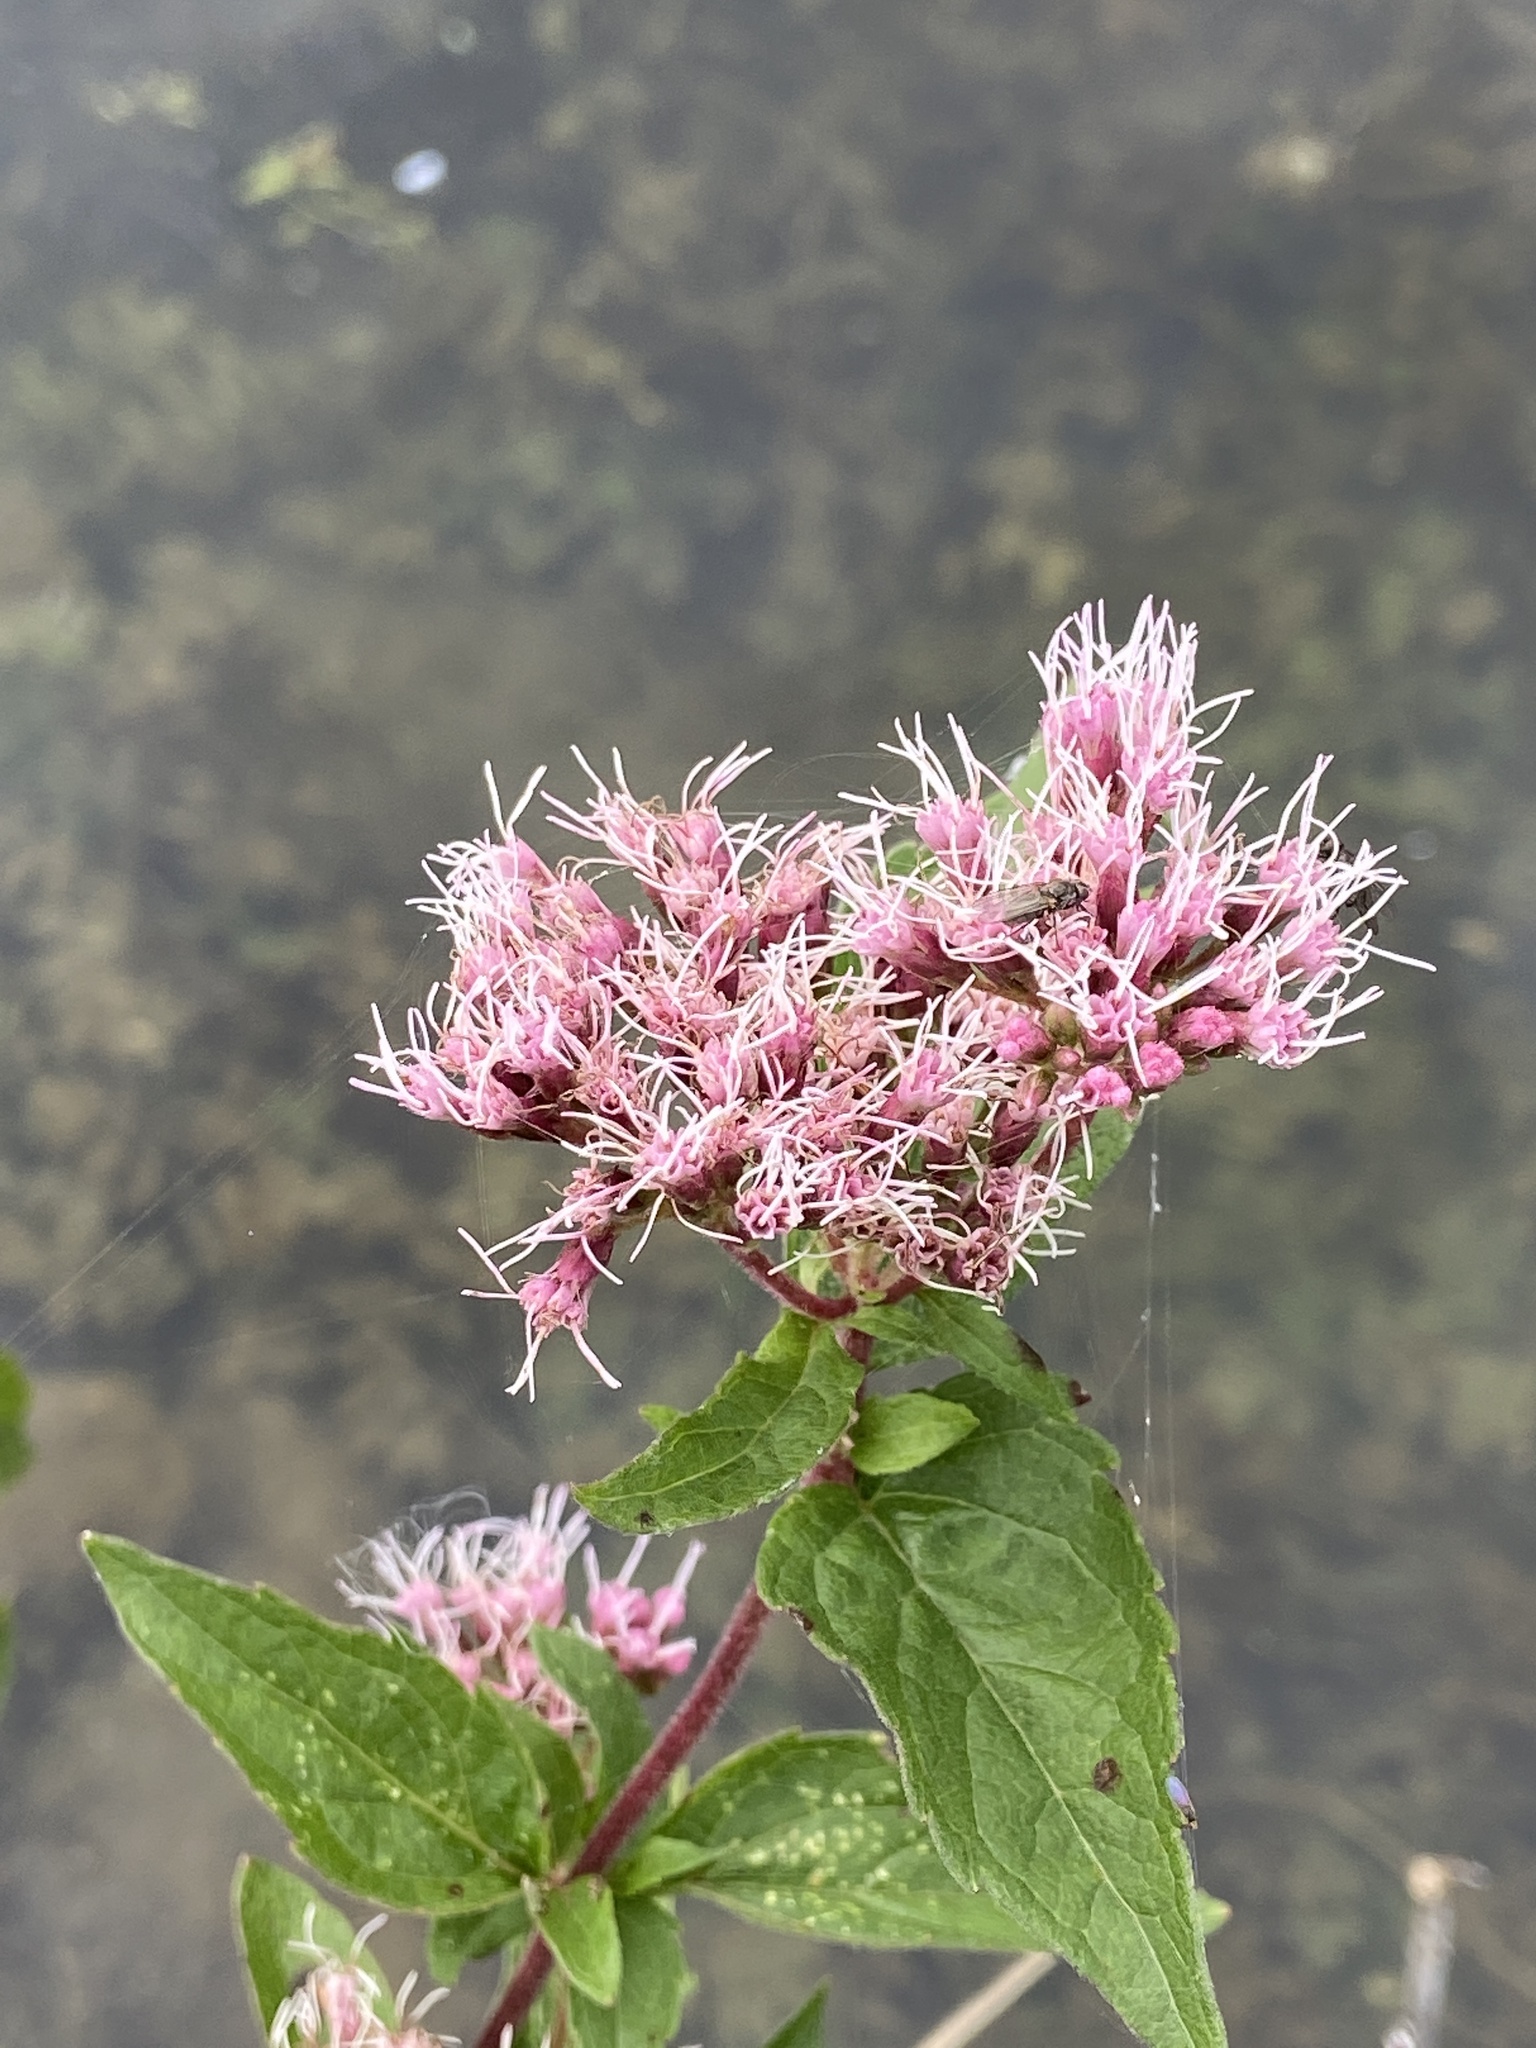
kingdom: Plantae
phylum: Tracheophyta
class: Magnoliopsida
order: Asterales
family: Asteraceae
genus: Eupatorium
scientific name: Eupatorium cannabinum
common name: Hemp-agrimony
